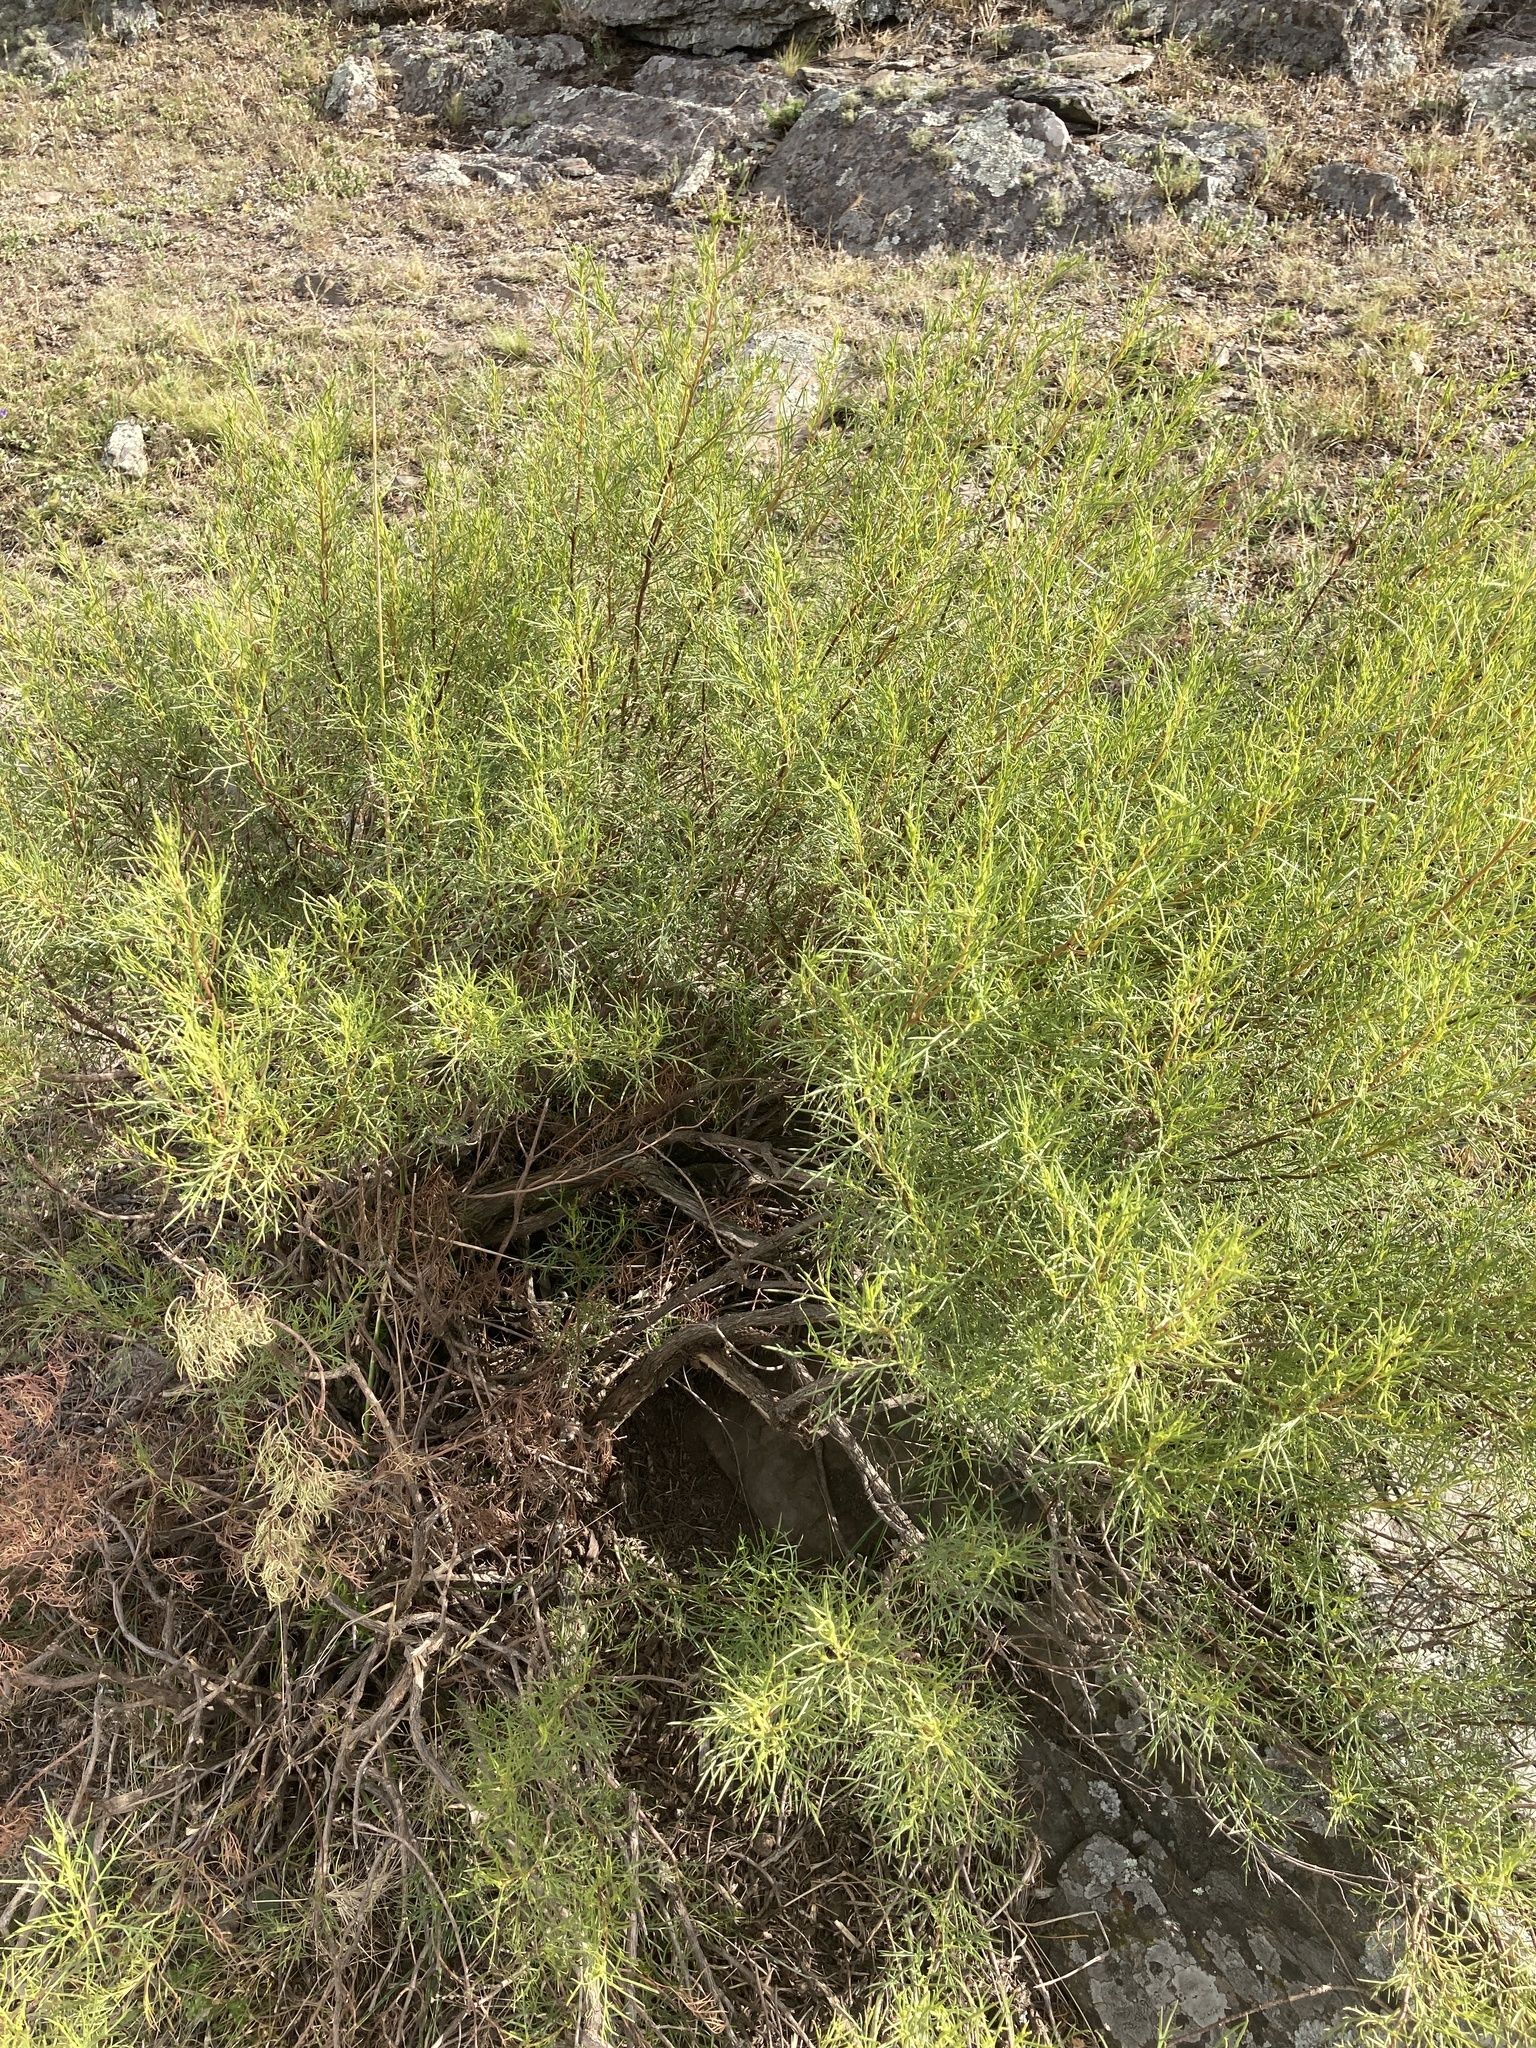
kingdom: Plantae
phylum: Tracheophyta
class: Magnoliopsida
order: Asterales
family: Asteraceae
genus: Acanthostyles
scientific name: Acanthostyles buniifolius
